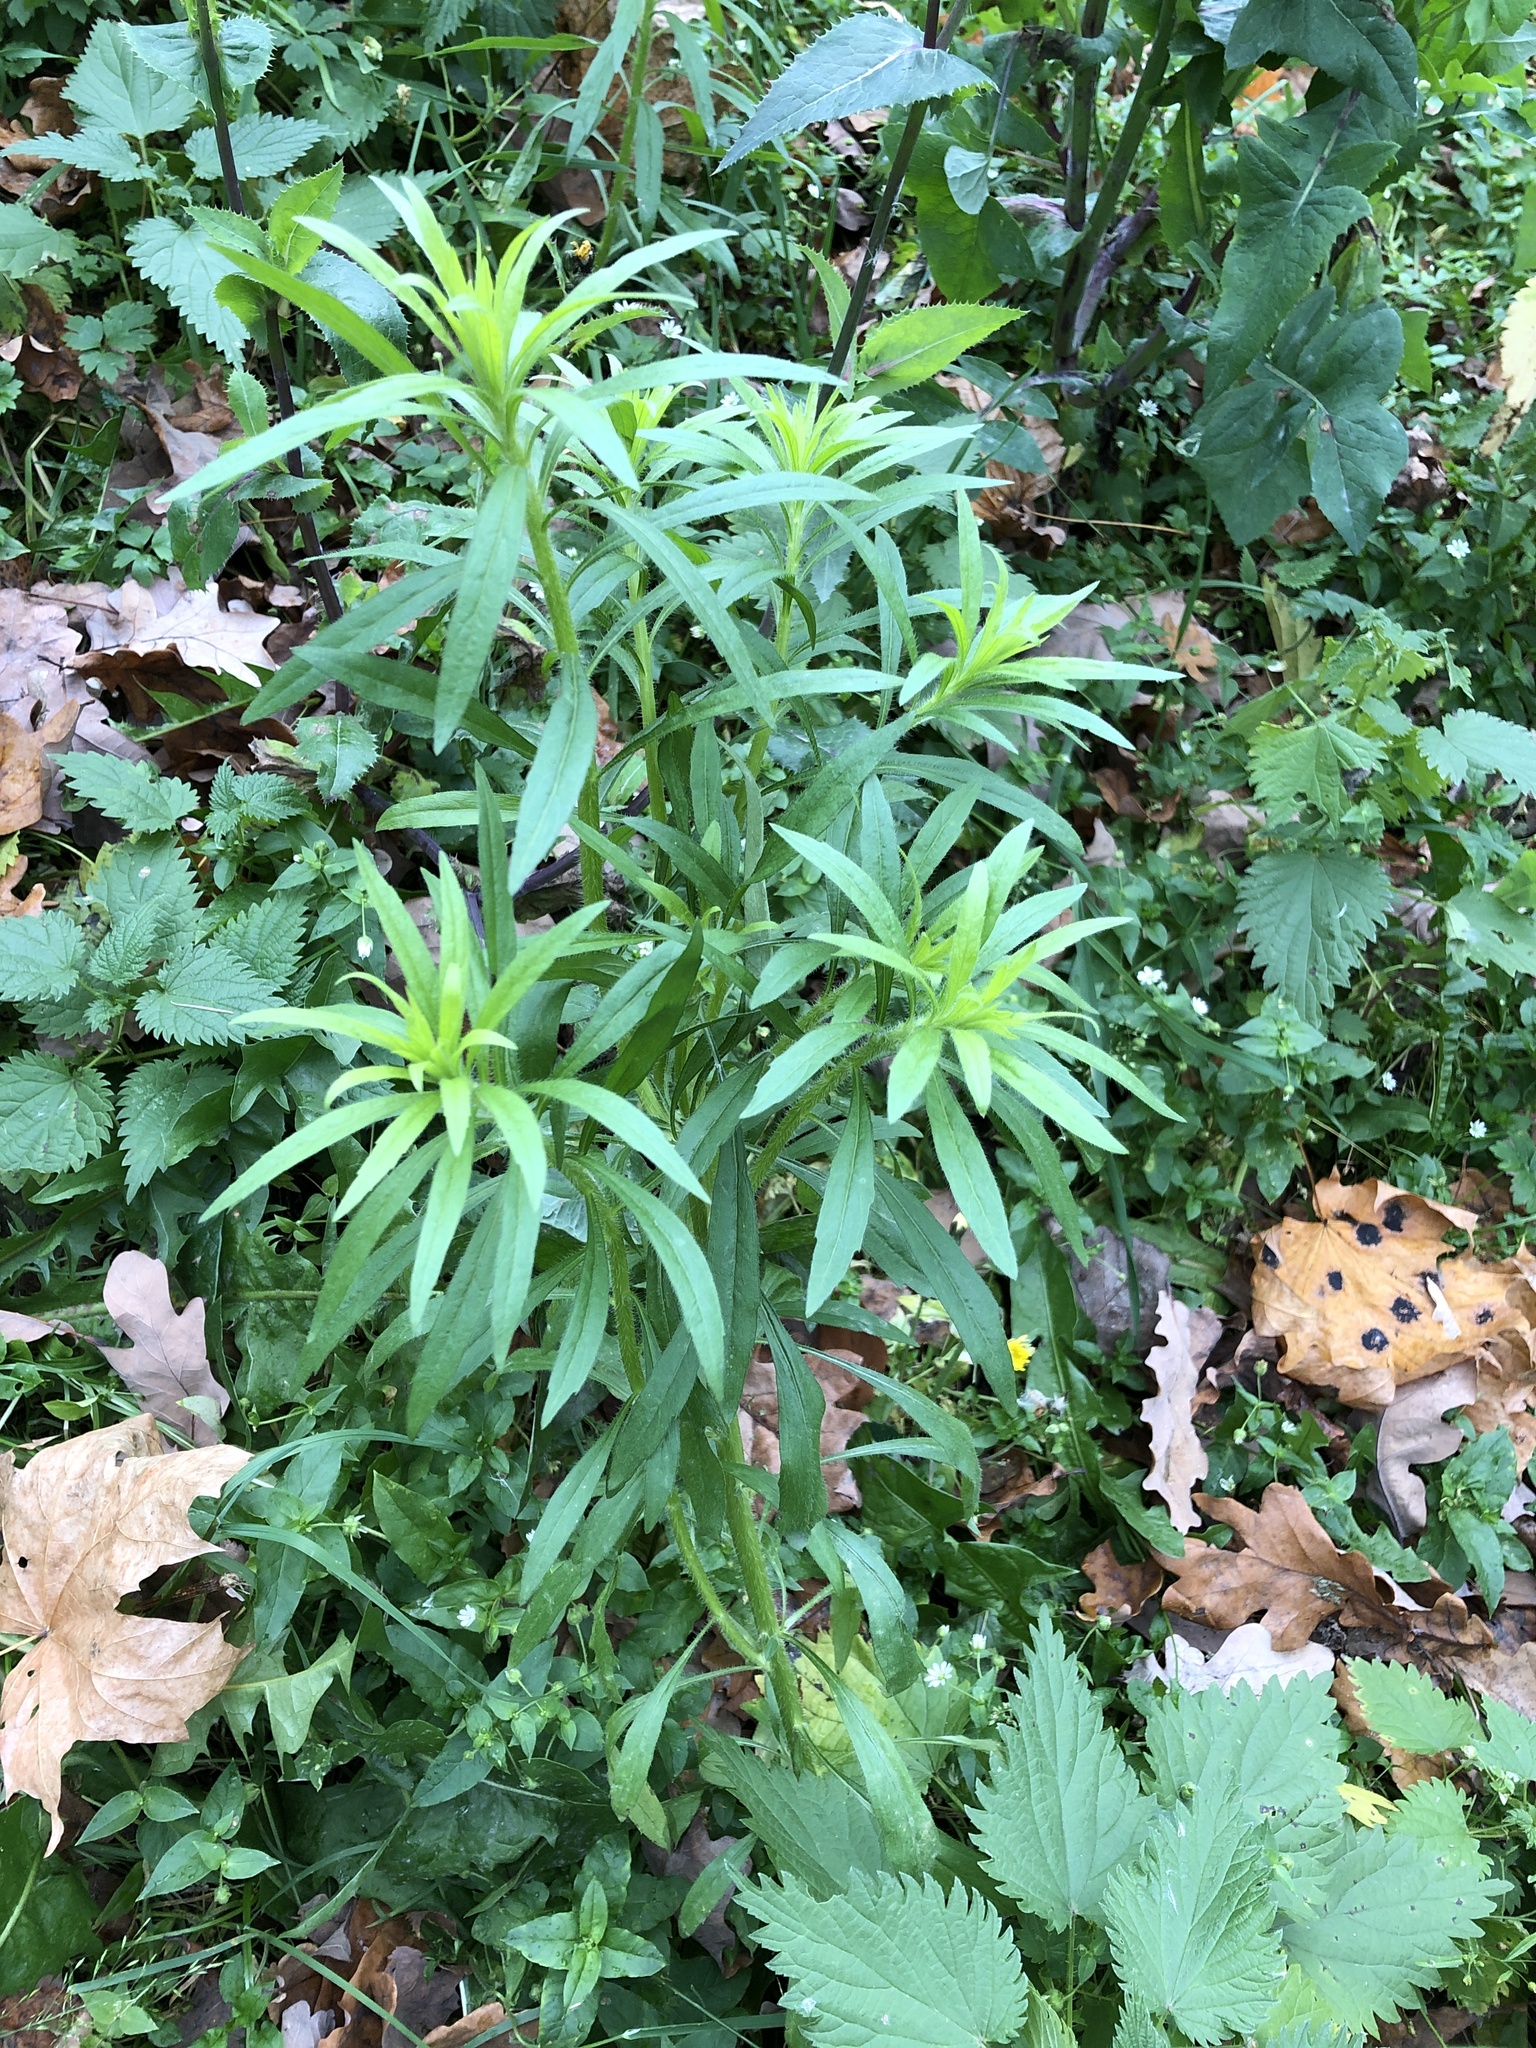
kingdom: Plantae
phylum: Tracheophyta
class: Magnoliopsida
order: Asterales
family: Asteraceae
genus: Erigeron
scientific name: Erigeron canadensis
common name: Canadian fleabane
